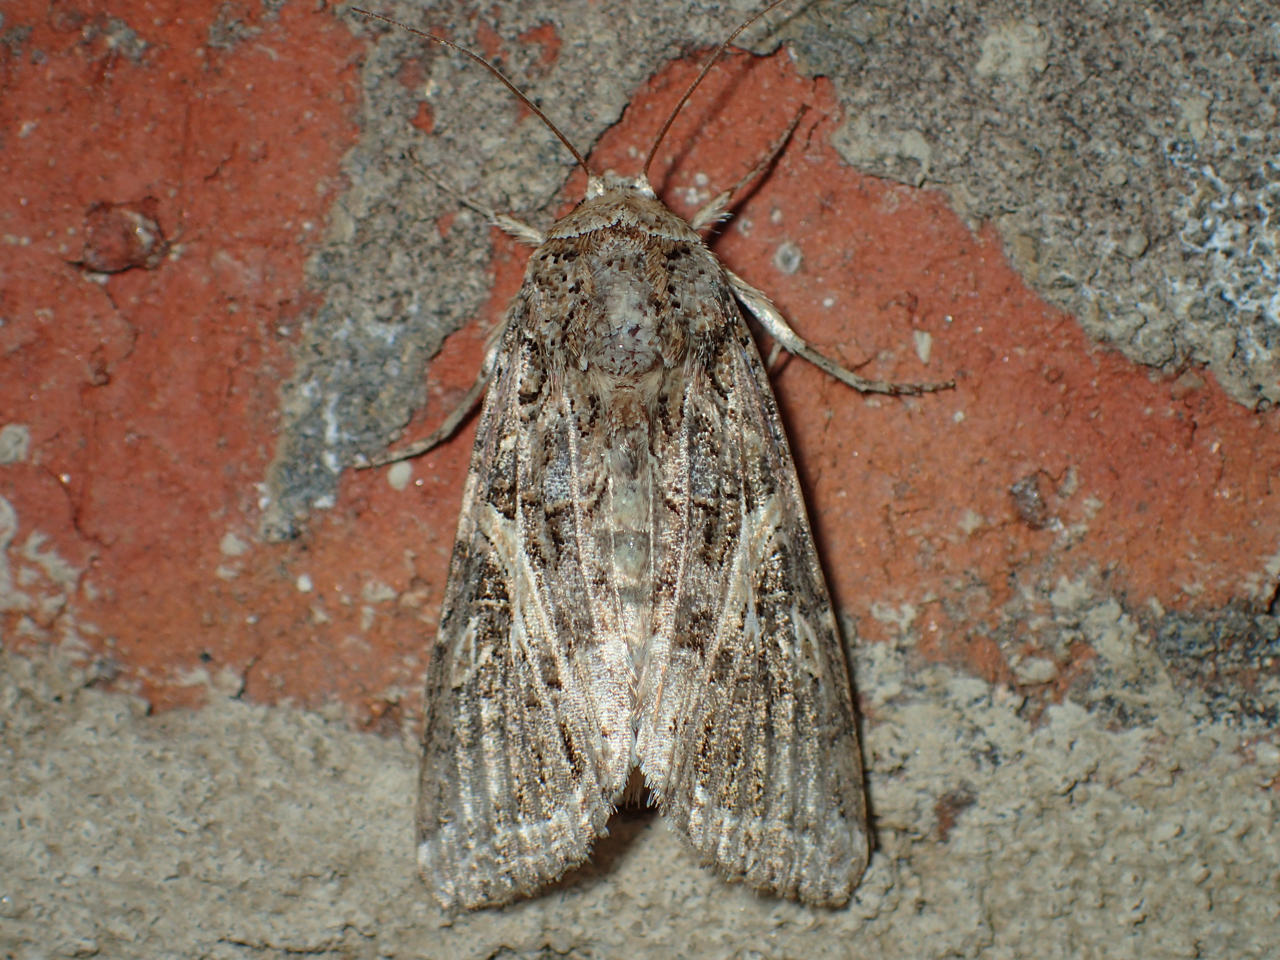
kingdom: Animalia
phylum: Arthropoda
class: Insecta
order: Lepidoptera
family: Noctuidae
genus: Spodoptera
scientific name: Spodoptera ornithogalli
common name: Yellow-striped armyworm
